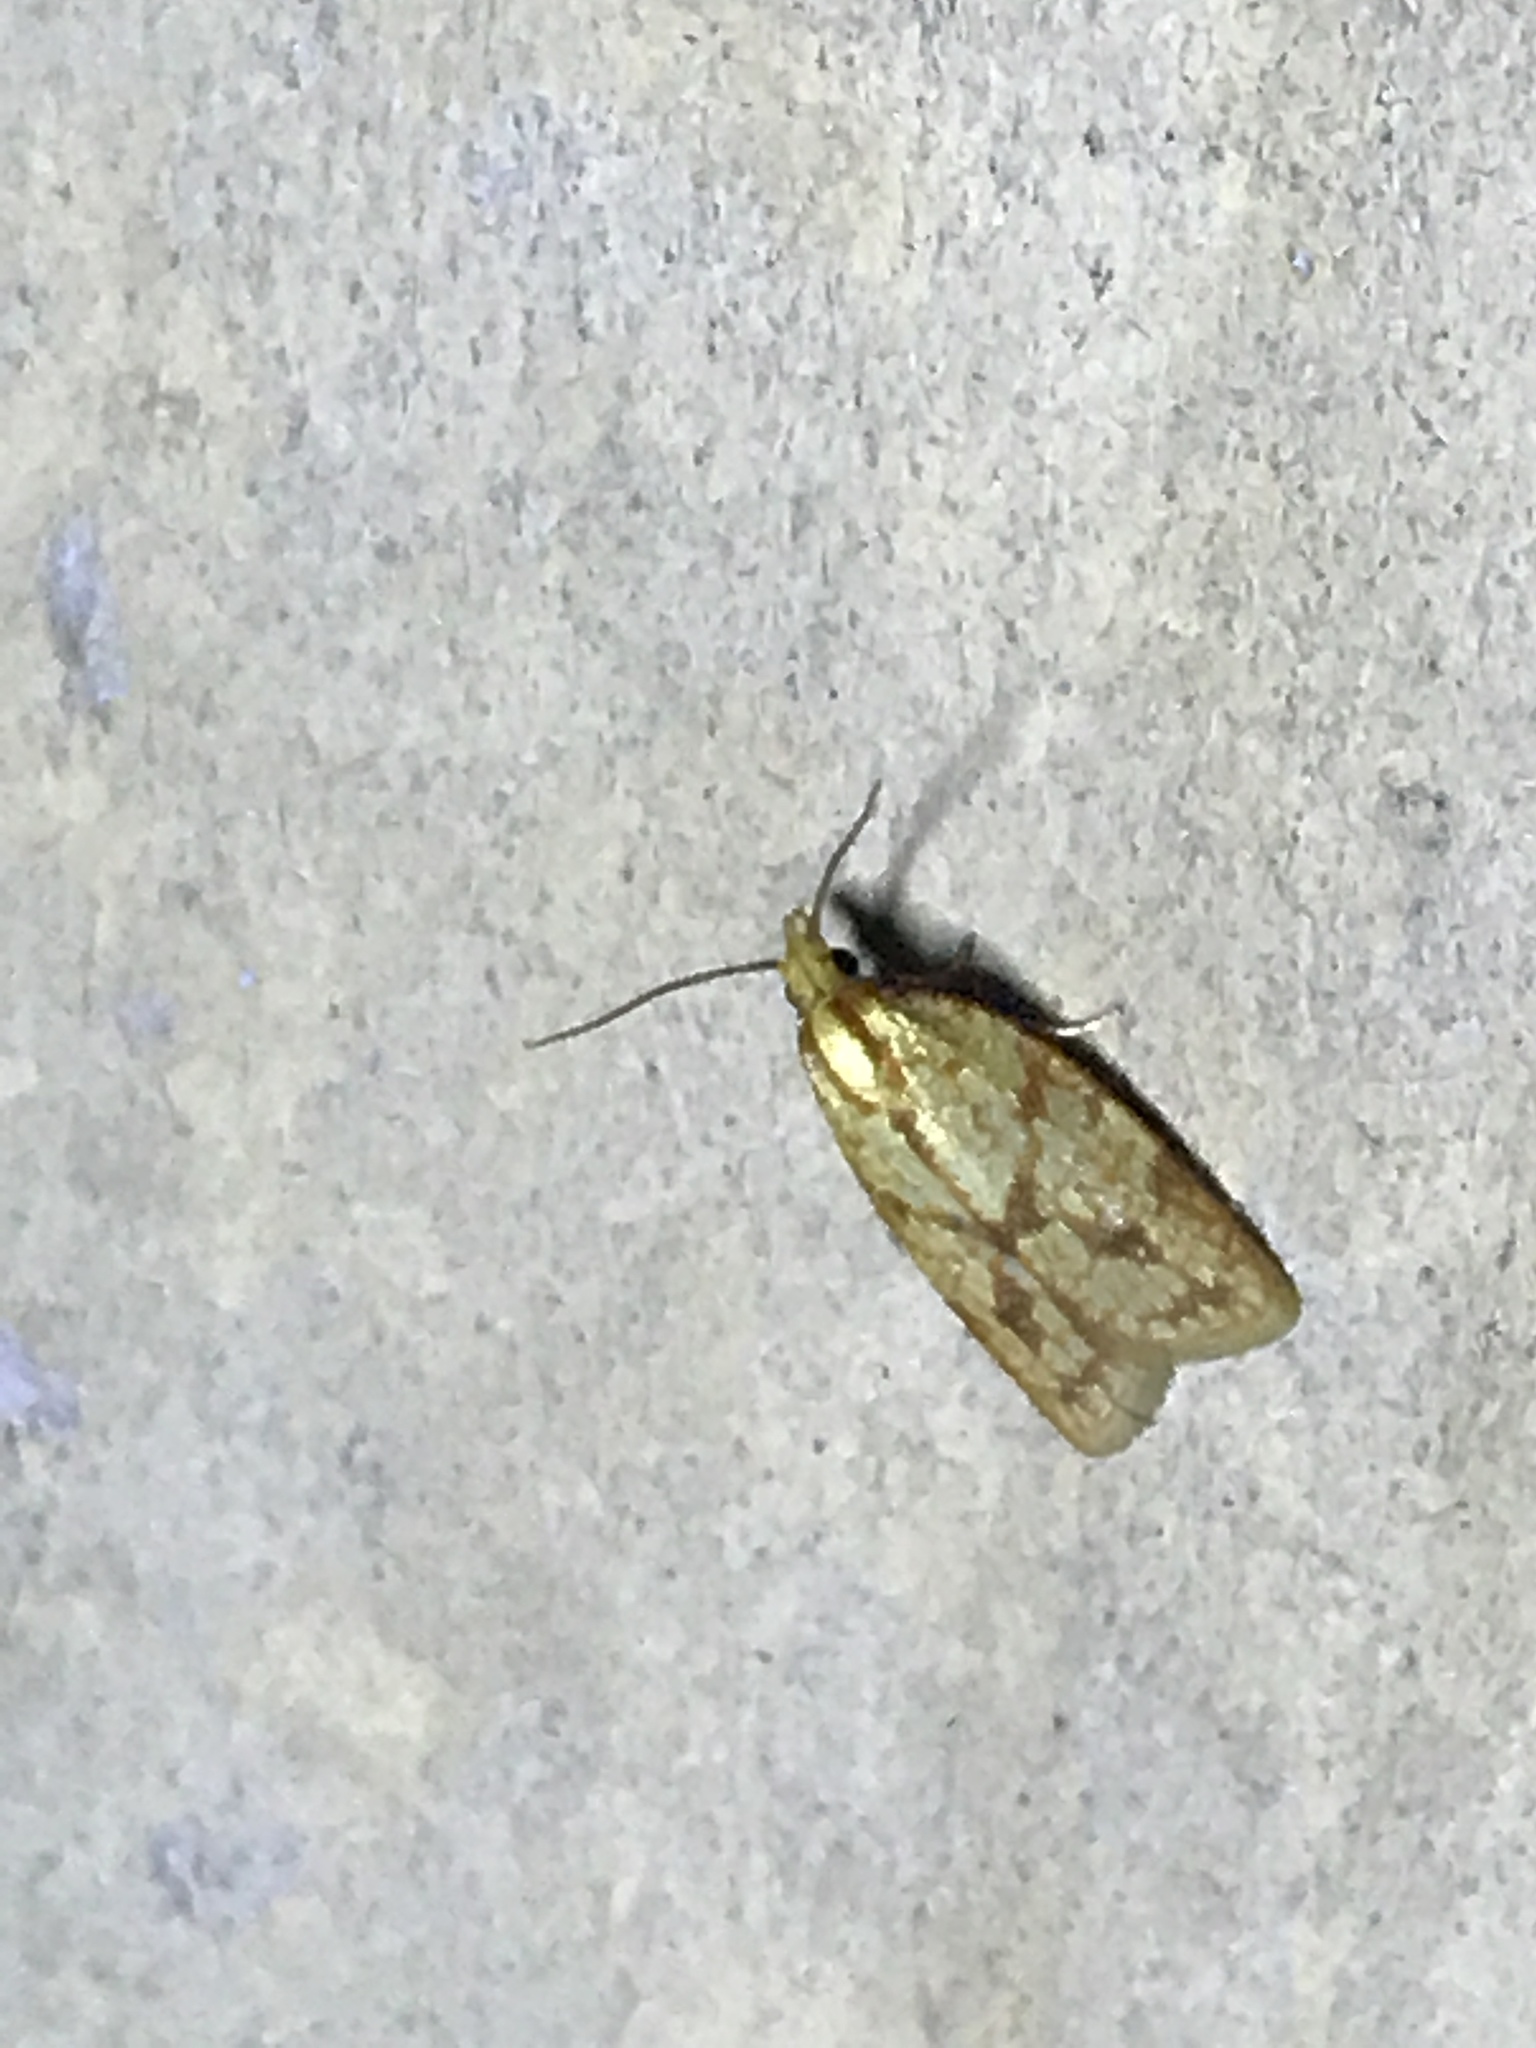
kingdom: Animalia
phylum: Arthropoda
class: Insecta
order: Lepidoptera
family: Tortricidae
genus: Sparganothis
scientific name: Sparganothis sulfureana
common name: Sparganothis fruitworm moth
